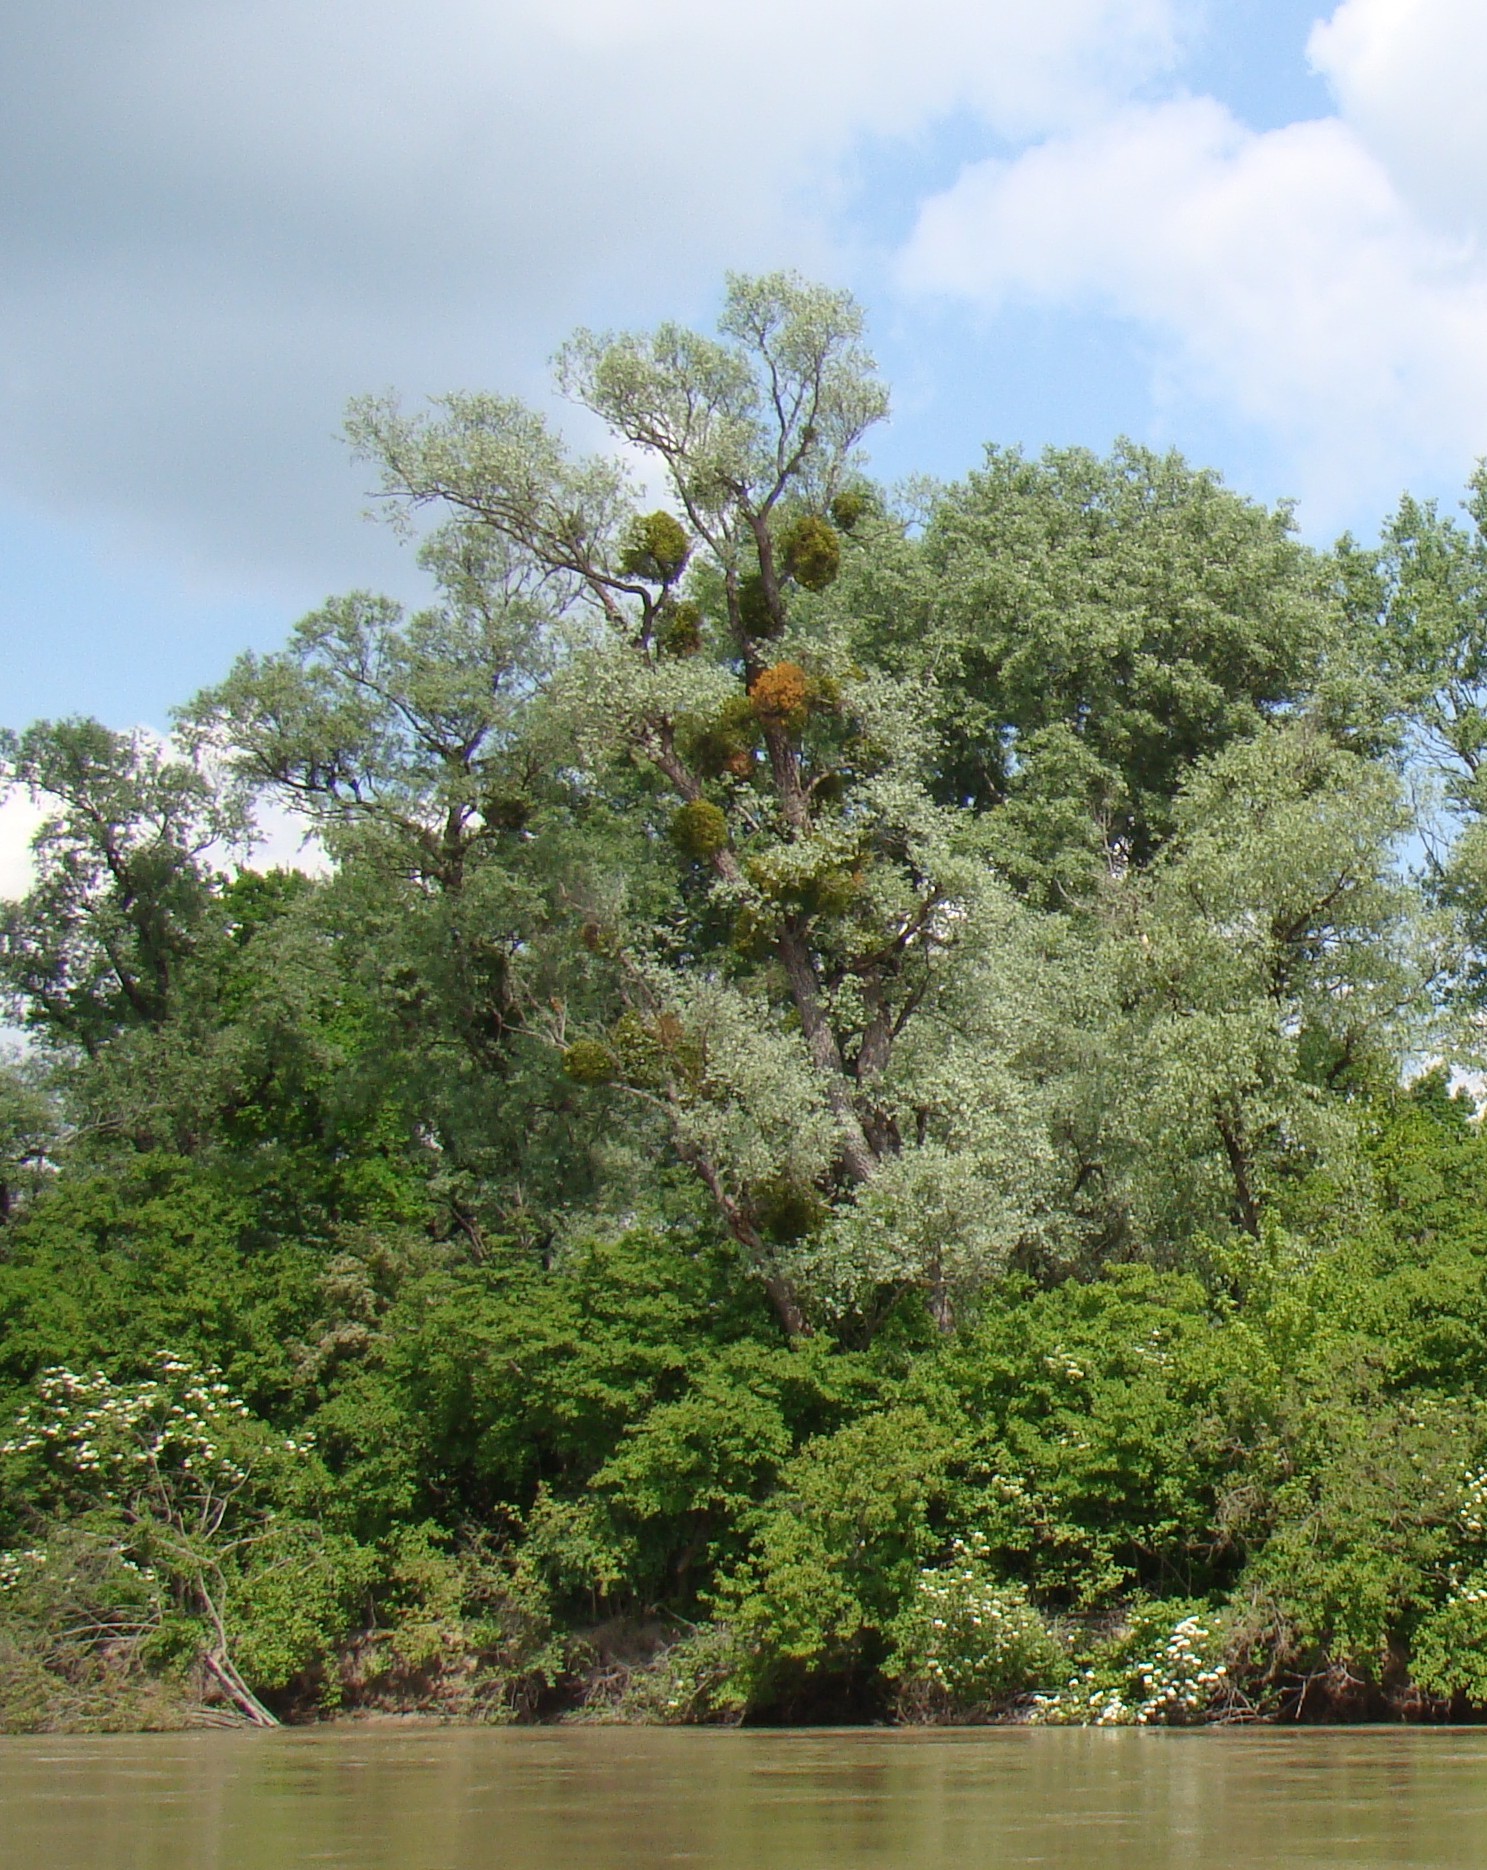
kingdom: Plantae
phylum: Tracheophyta
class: Magnoliopsida
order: Santalales
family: Viscaceae
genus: Viscum
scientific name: Viscum album
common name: Mistletoe
